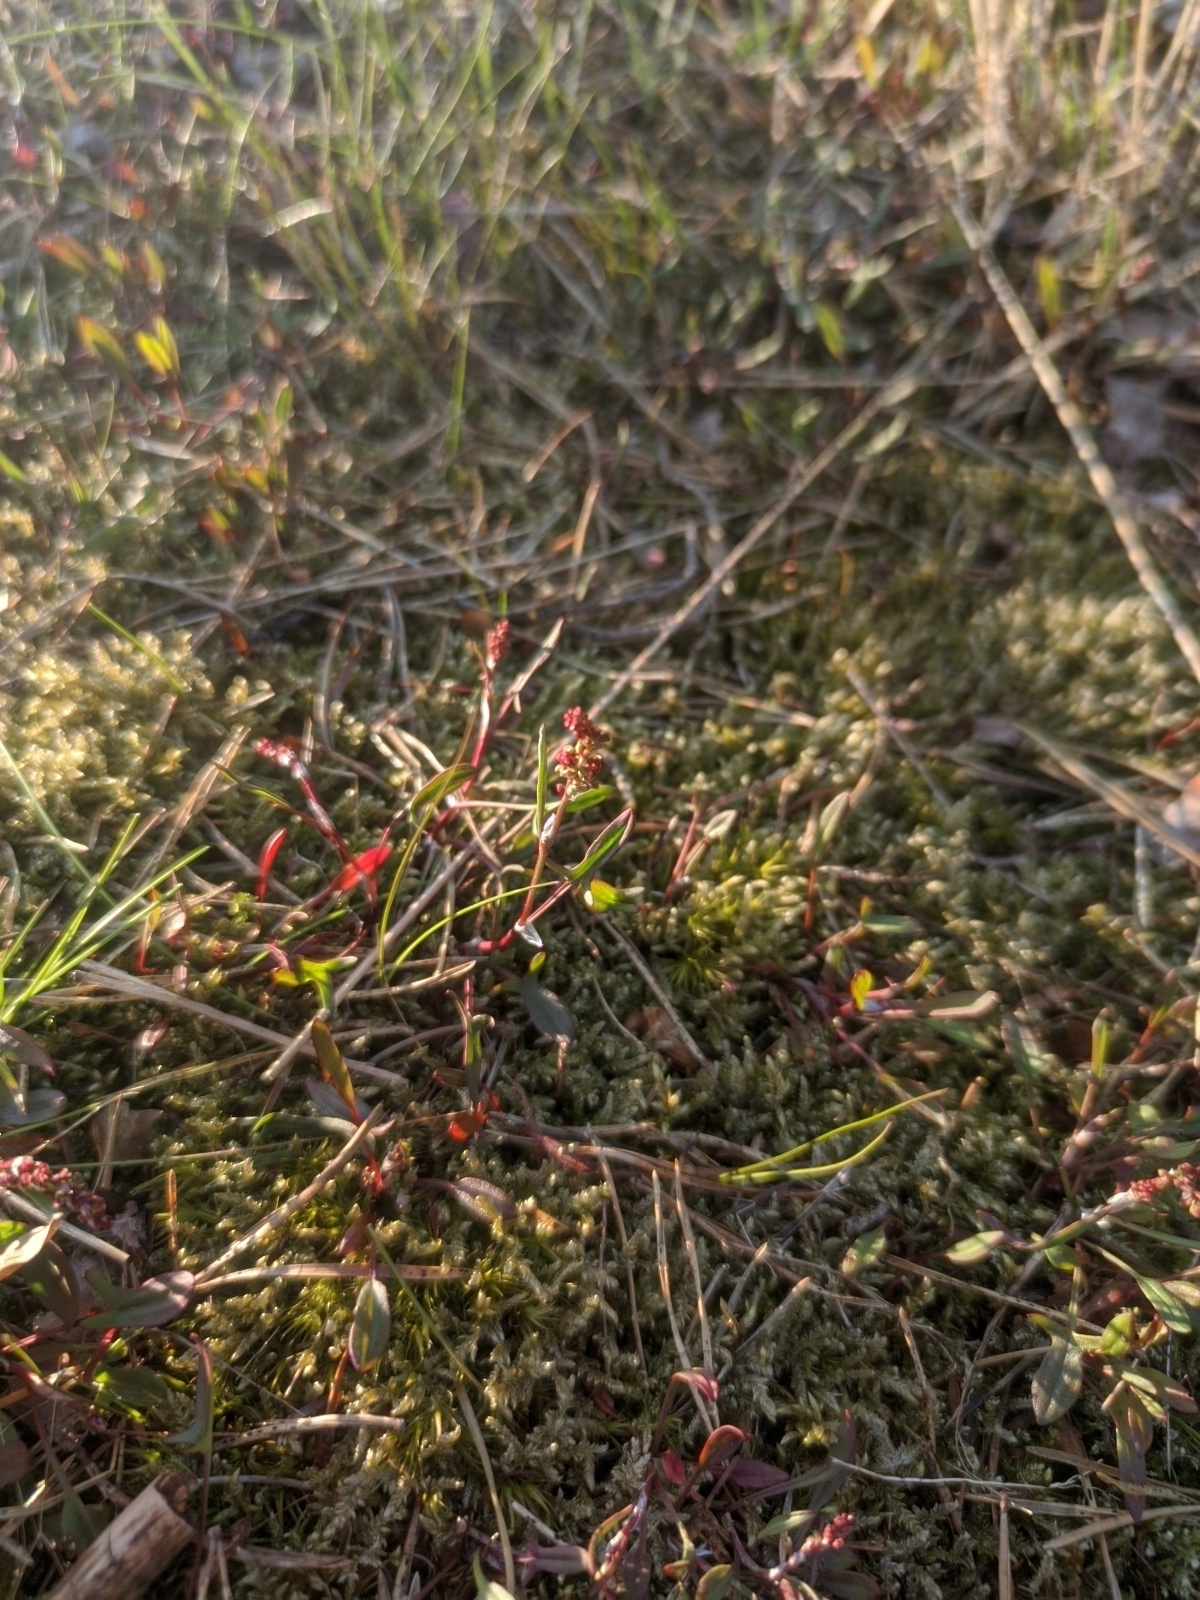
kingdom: Plantae
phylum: Tracheophyta
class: Magnoliopsida
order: Caryophyllales
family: Polygonaceae
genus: Rumex
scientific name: Rumex acetosella
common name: Common sheep sorrel
